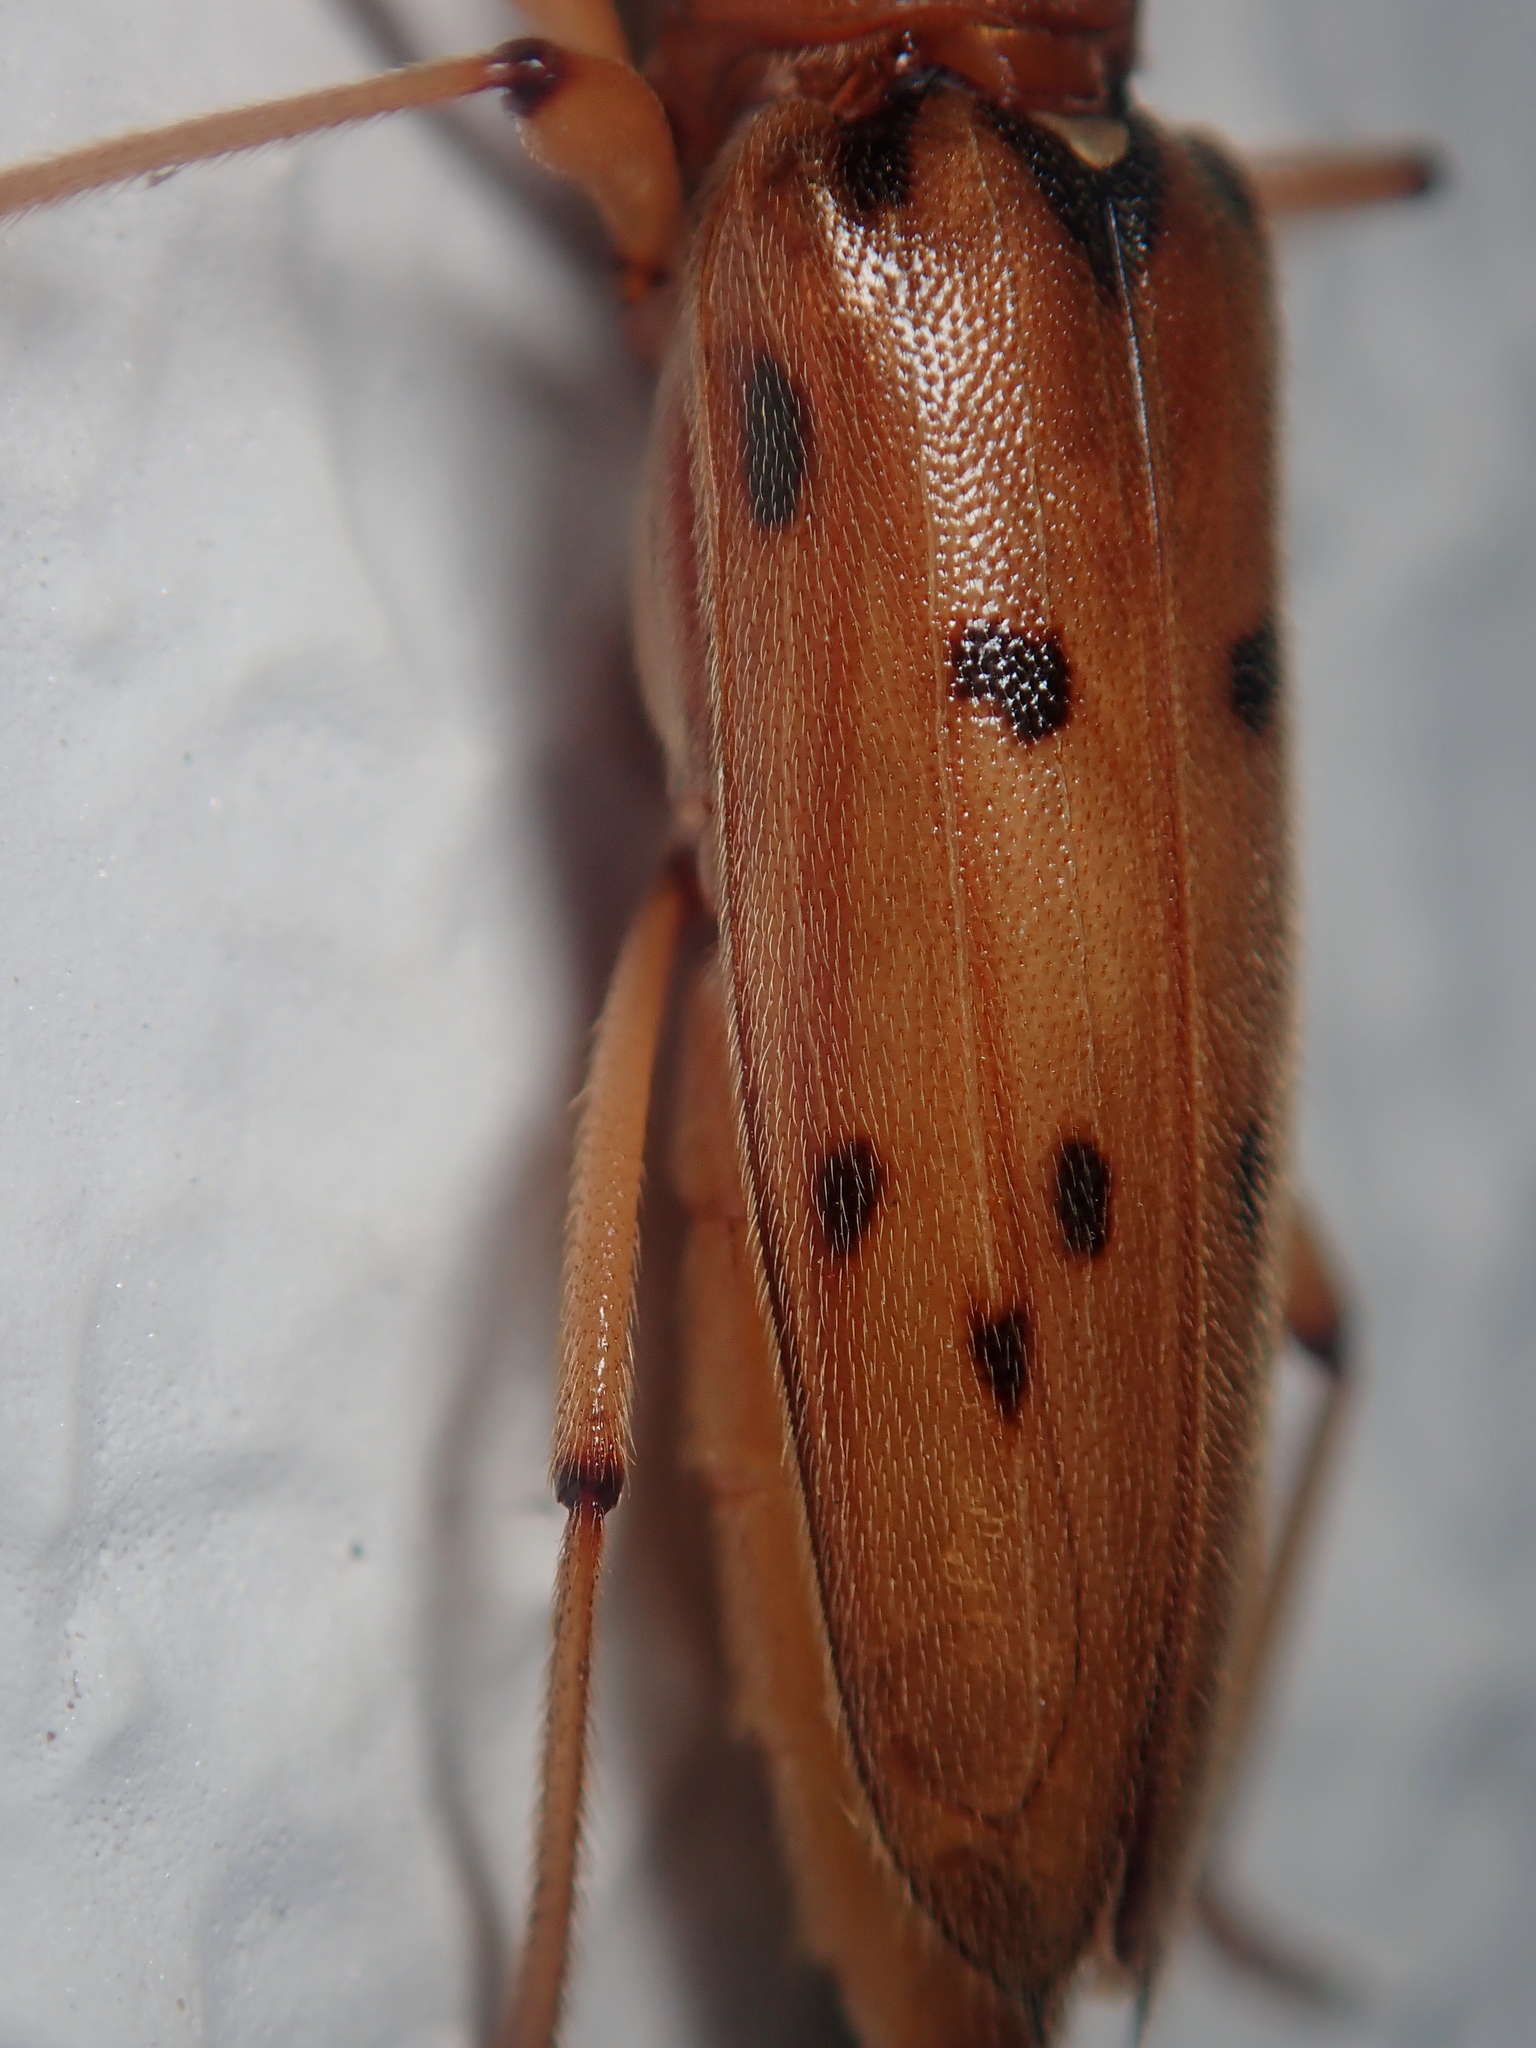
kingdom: Animalia
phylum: Arthropoda
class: Insecta
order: Coleoptera
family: Cerambycidae
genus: Achryson
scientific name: Achryson surinamum
